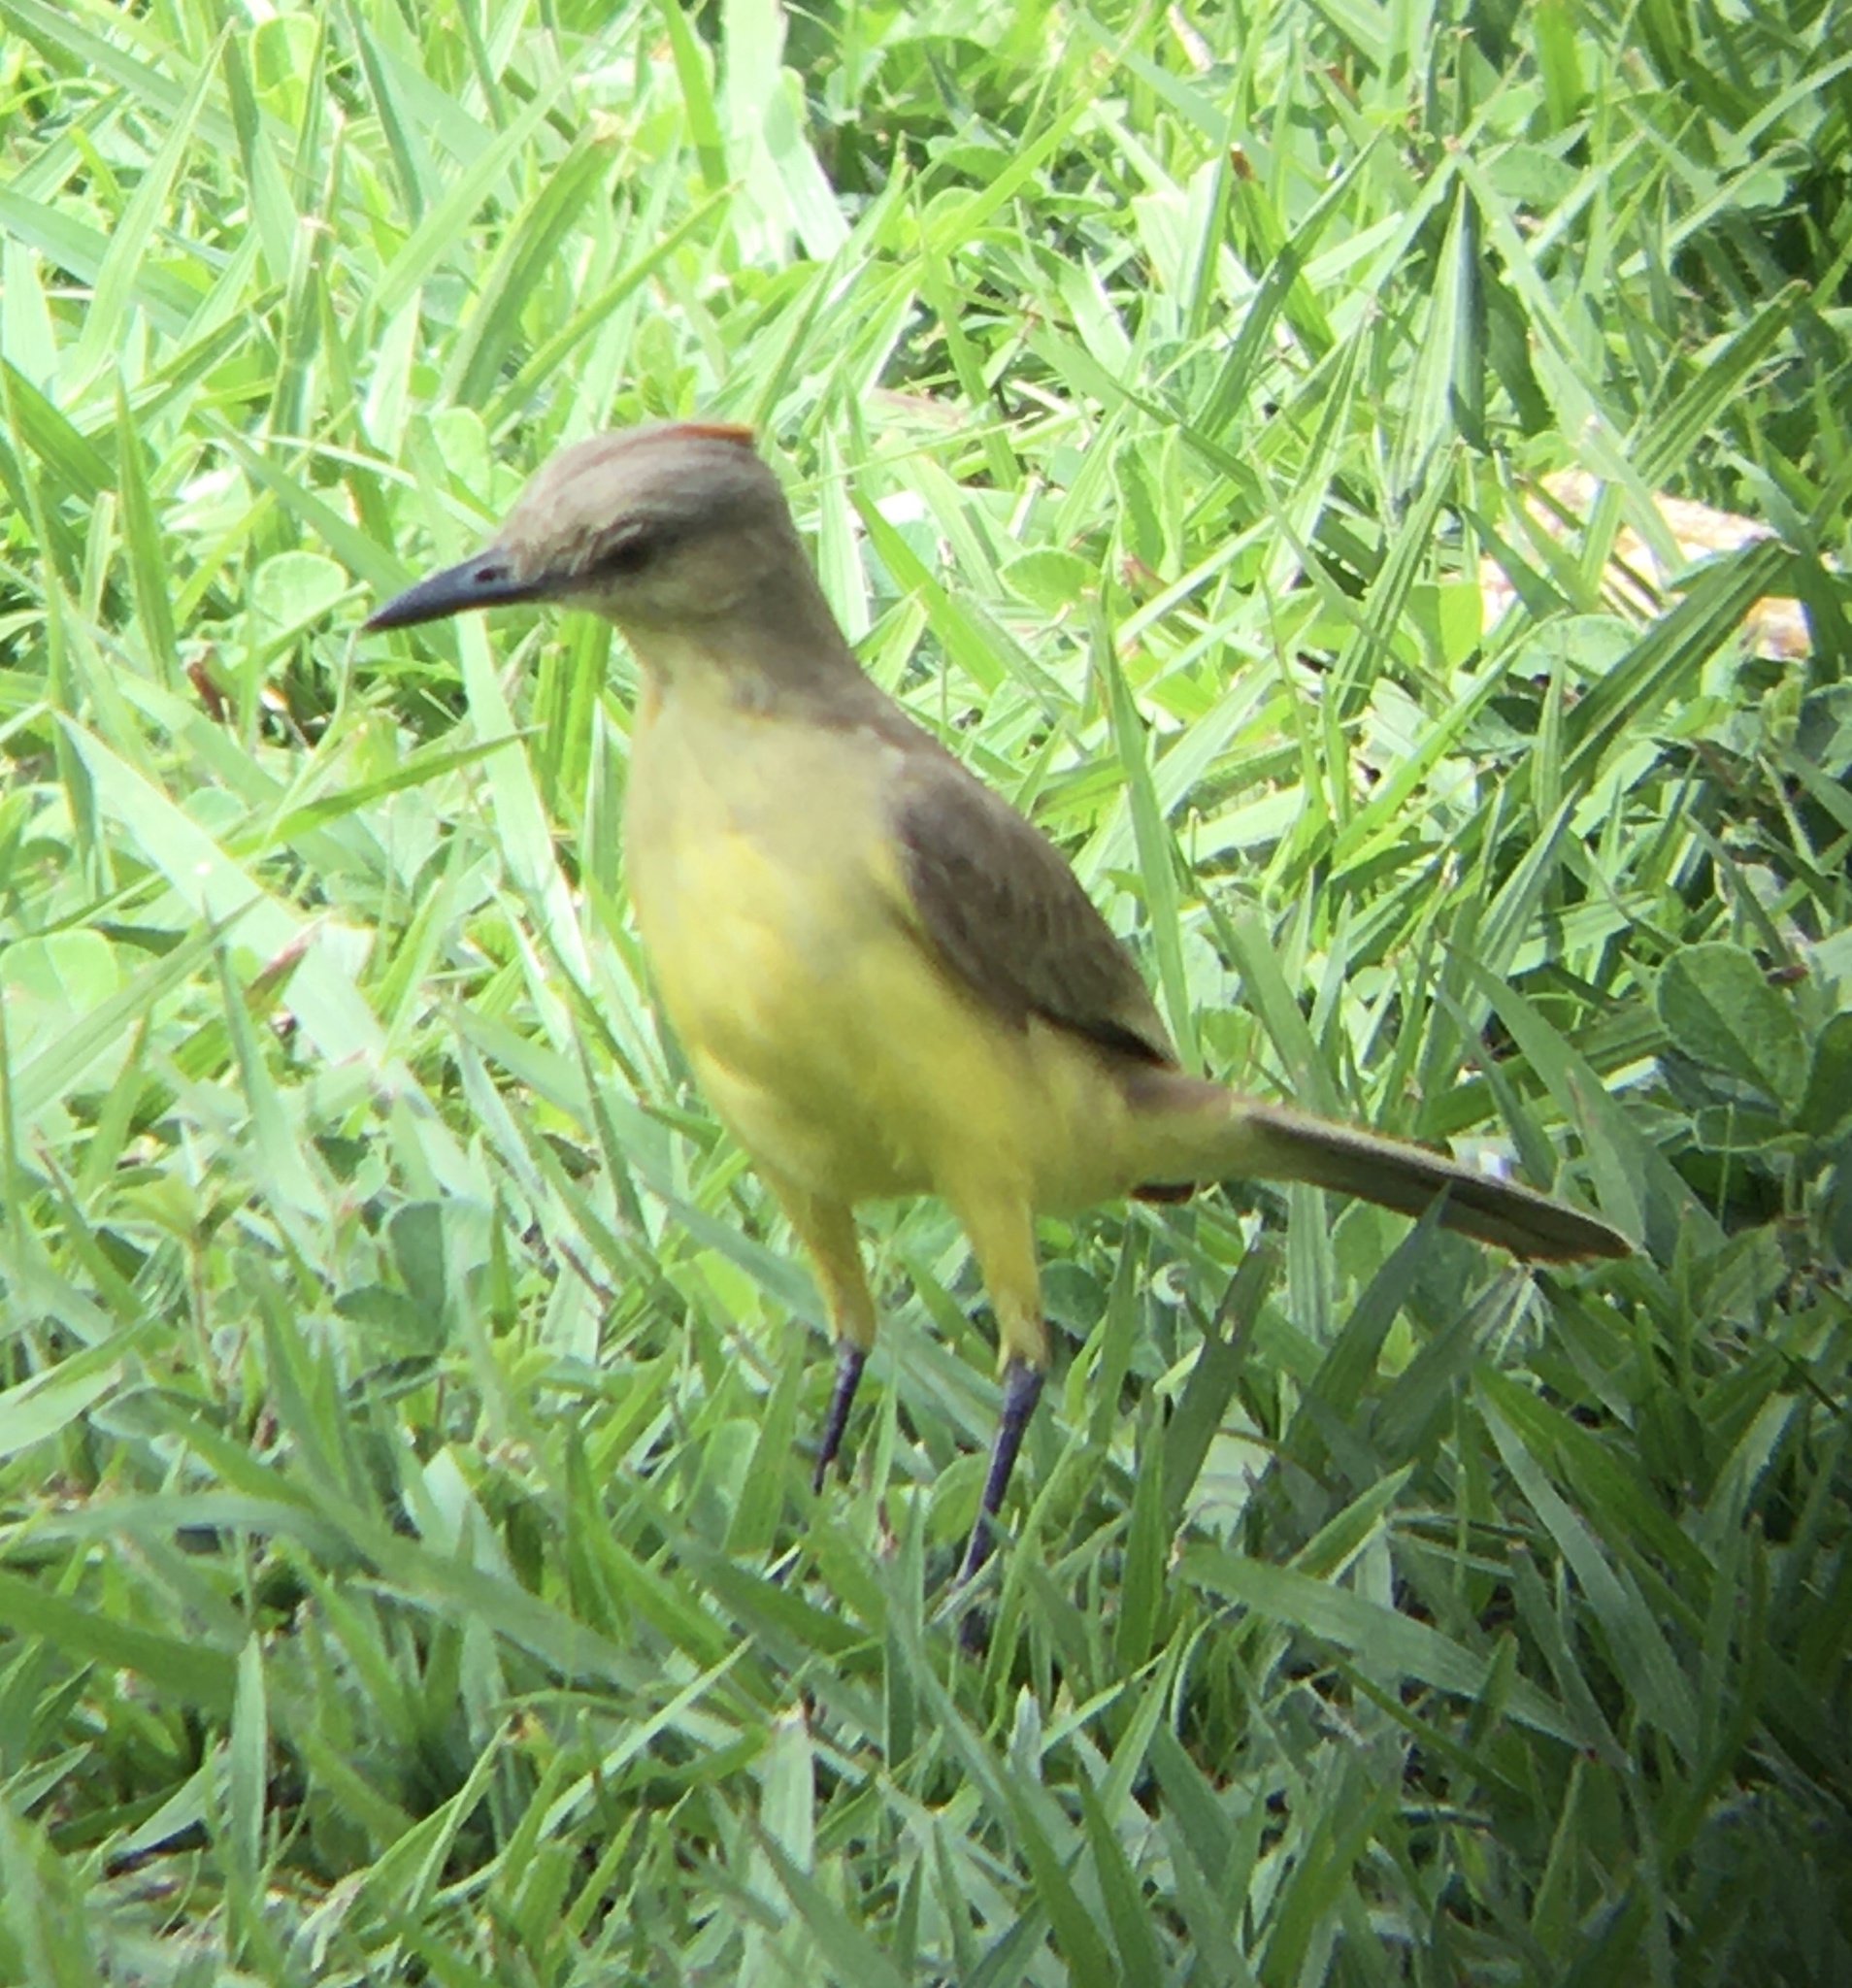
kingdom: Animalia
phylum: Chordata
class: Aves
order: Passeriformes
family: Tyrannidae
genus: Machetornis
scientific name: Machetornis rixosa
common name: Cattle tyrant
